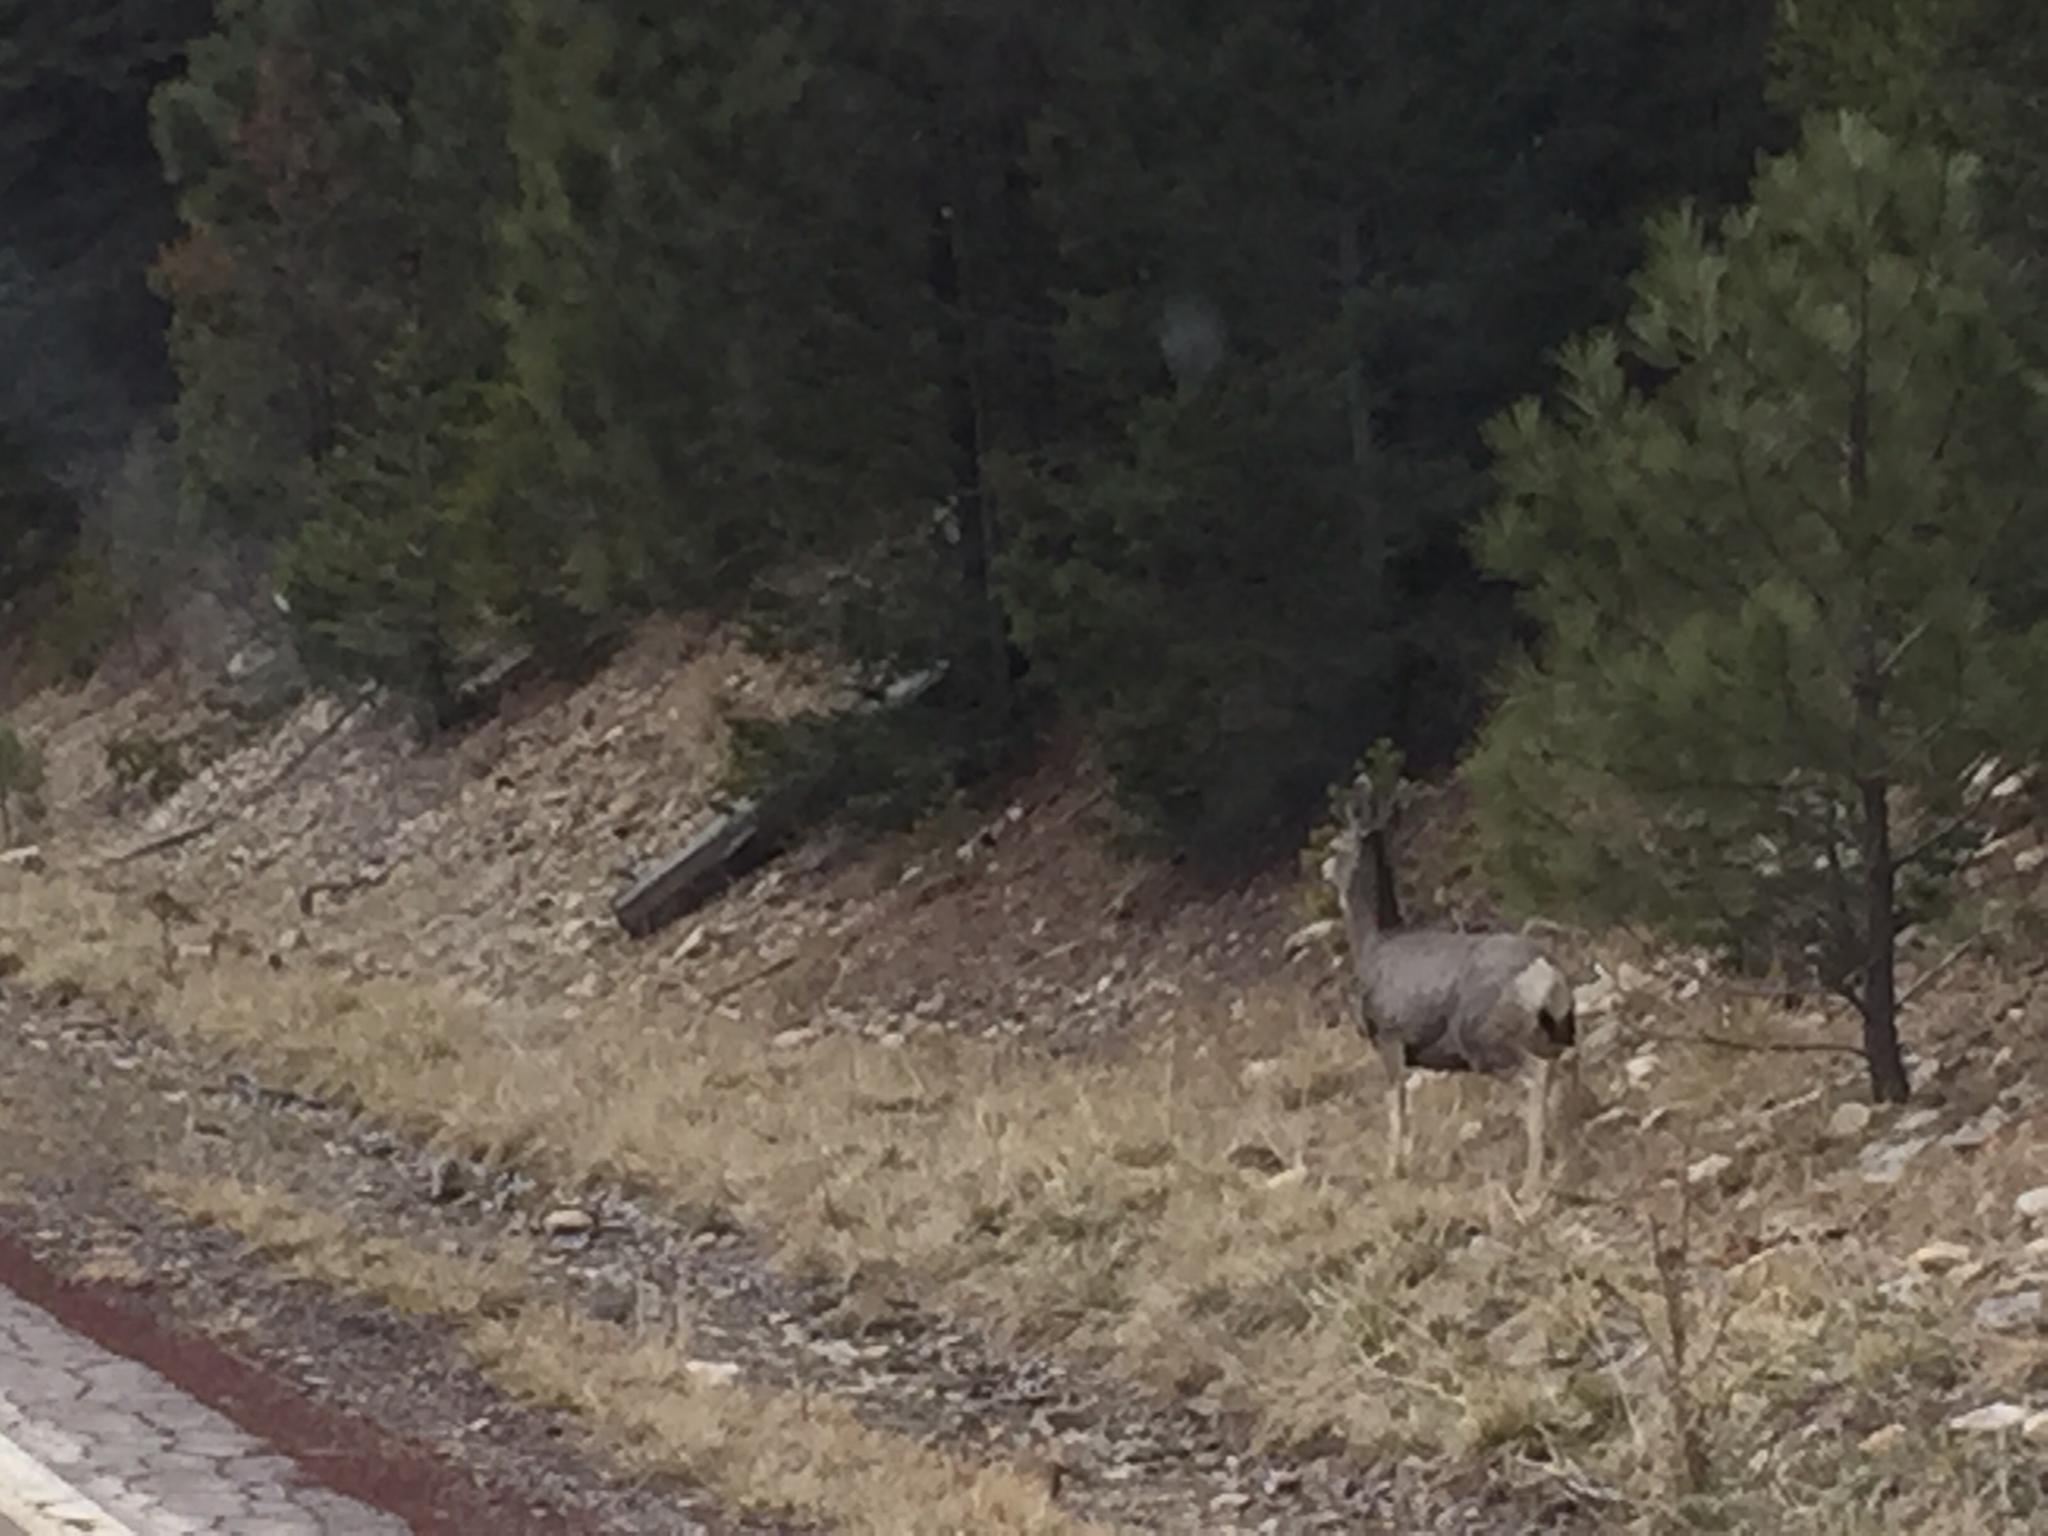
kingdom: Animalia
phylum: Chordata
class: Mammalia
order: Artiodactyla
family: Cervidae
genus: Odocoileus
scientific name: Odocoileus hemionus
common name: Mule deer
